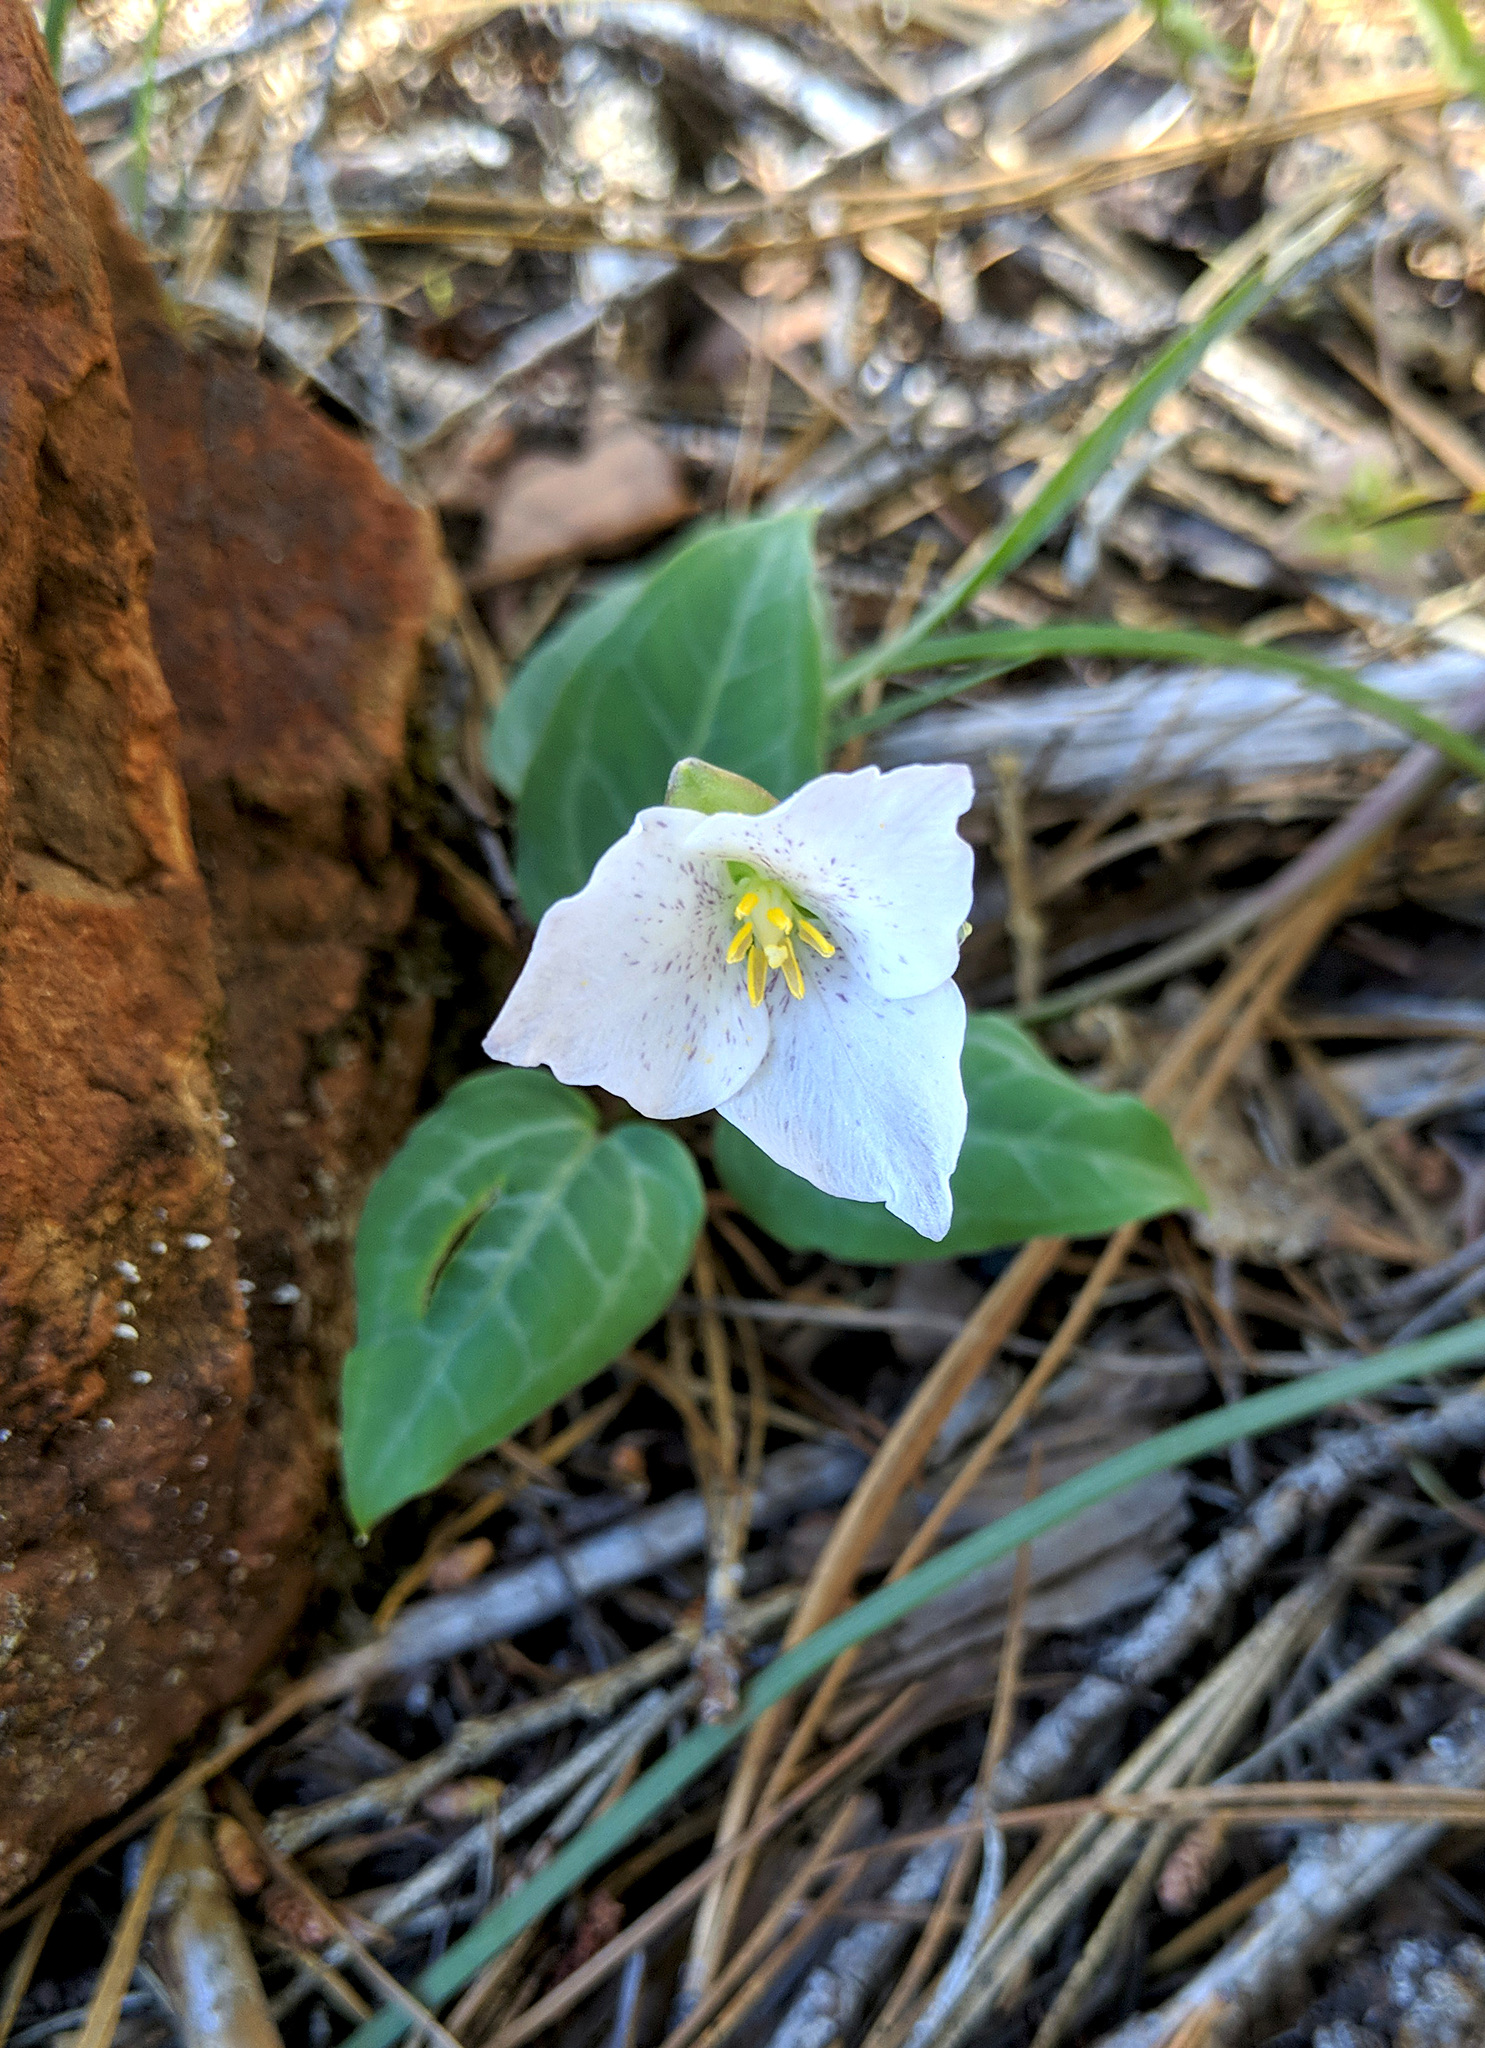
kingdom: Plantae
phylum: Tracheophyta
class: Liliopsida
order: Liliales
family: Melanthiaceae
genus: Pseudotrillium
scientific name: Pseudotrillium rivale
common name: Brook wakerobin
